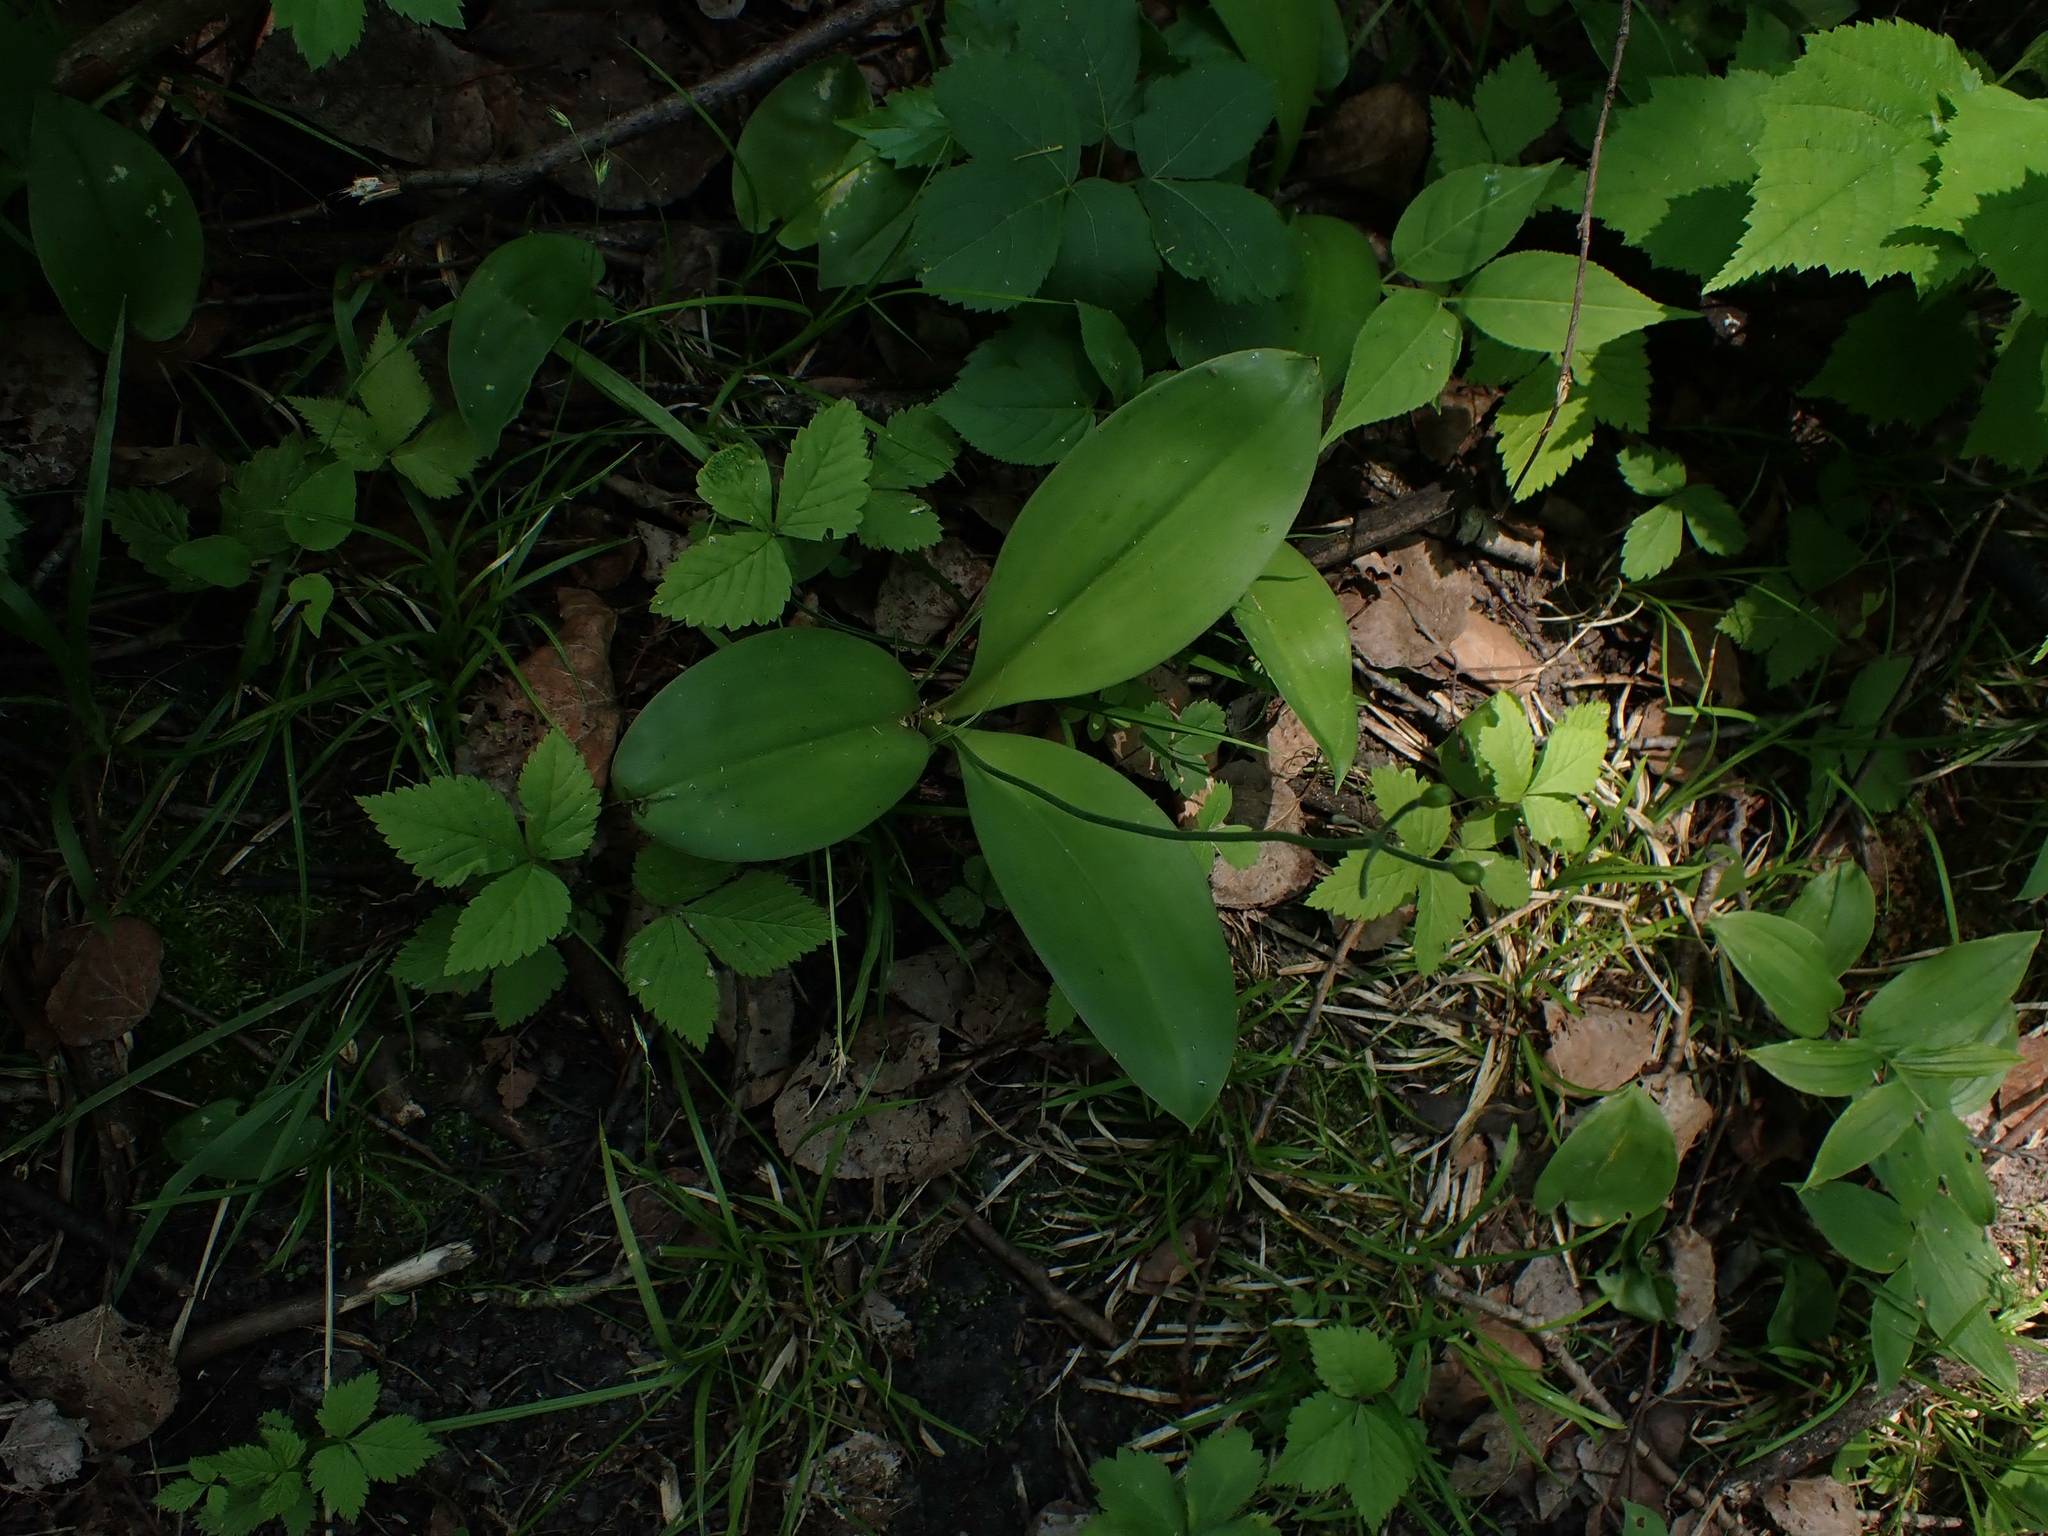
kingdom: Plantae
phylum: Tracheophyta
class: Liliopsida
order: Liliales
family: Liliaceae
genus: Clintonia
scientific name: Clintonia borealis
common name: Yellow clintonia
